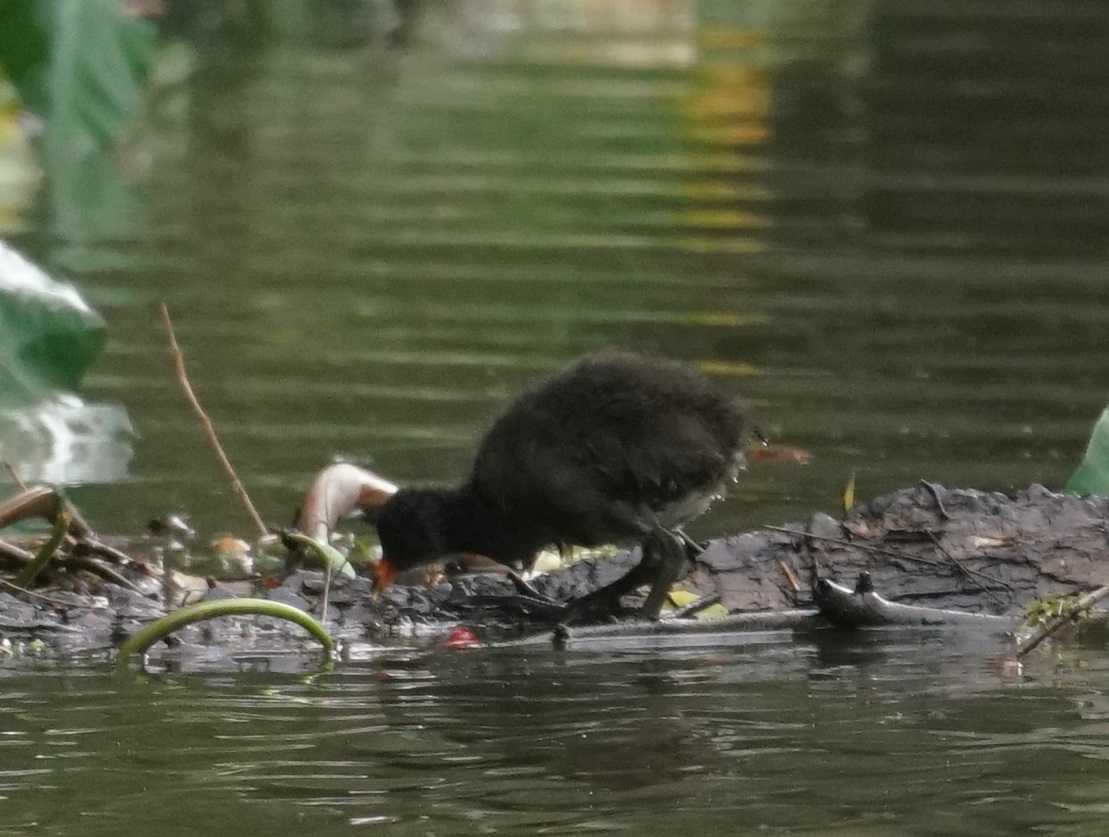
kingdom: Animalia
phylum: Chordata
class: Aves
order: Gruiformes
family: Rallidae
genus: Gallinula
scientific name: Gallinula tenebrosa
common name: Dusky moorhen
